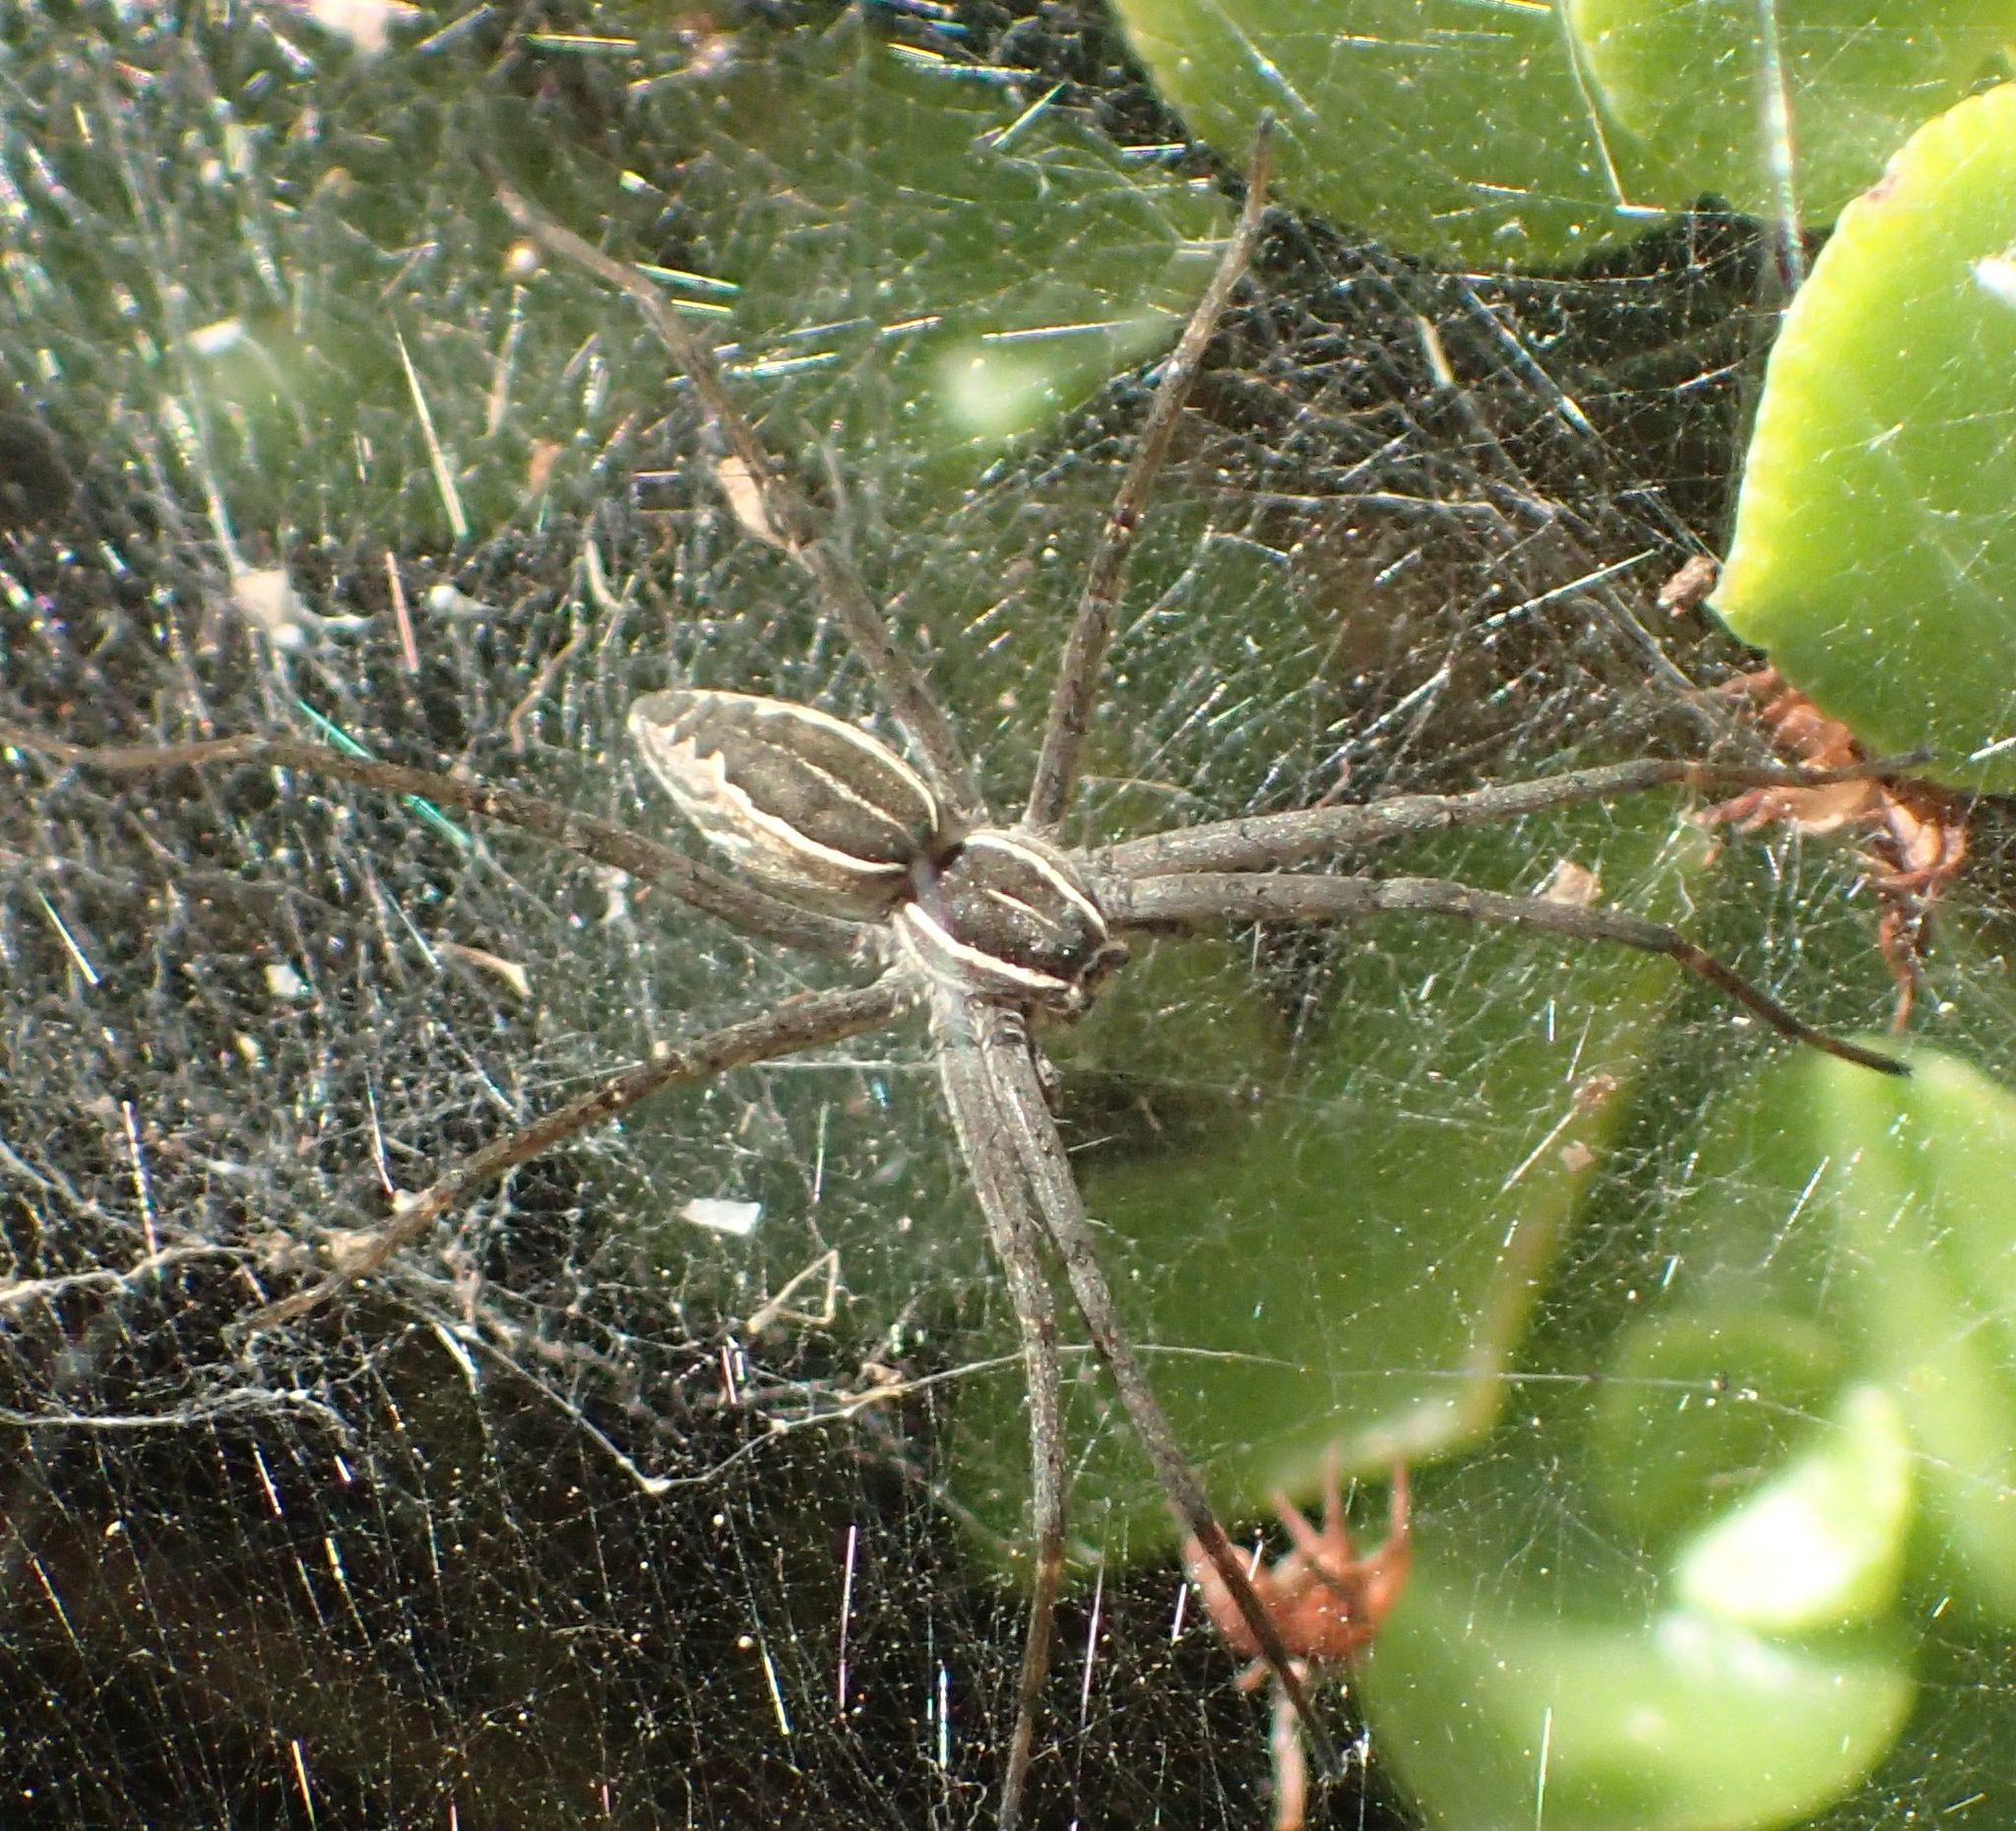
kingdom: Animalia
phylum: Arthropoda
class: Arachnida
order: Araneae
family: Pisauridae
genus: Euprosthenopsis
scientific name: Euprosthenopsis pulchella
